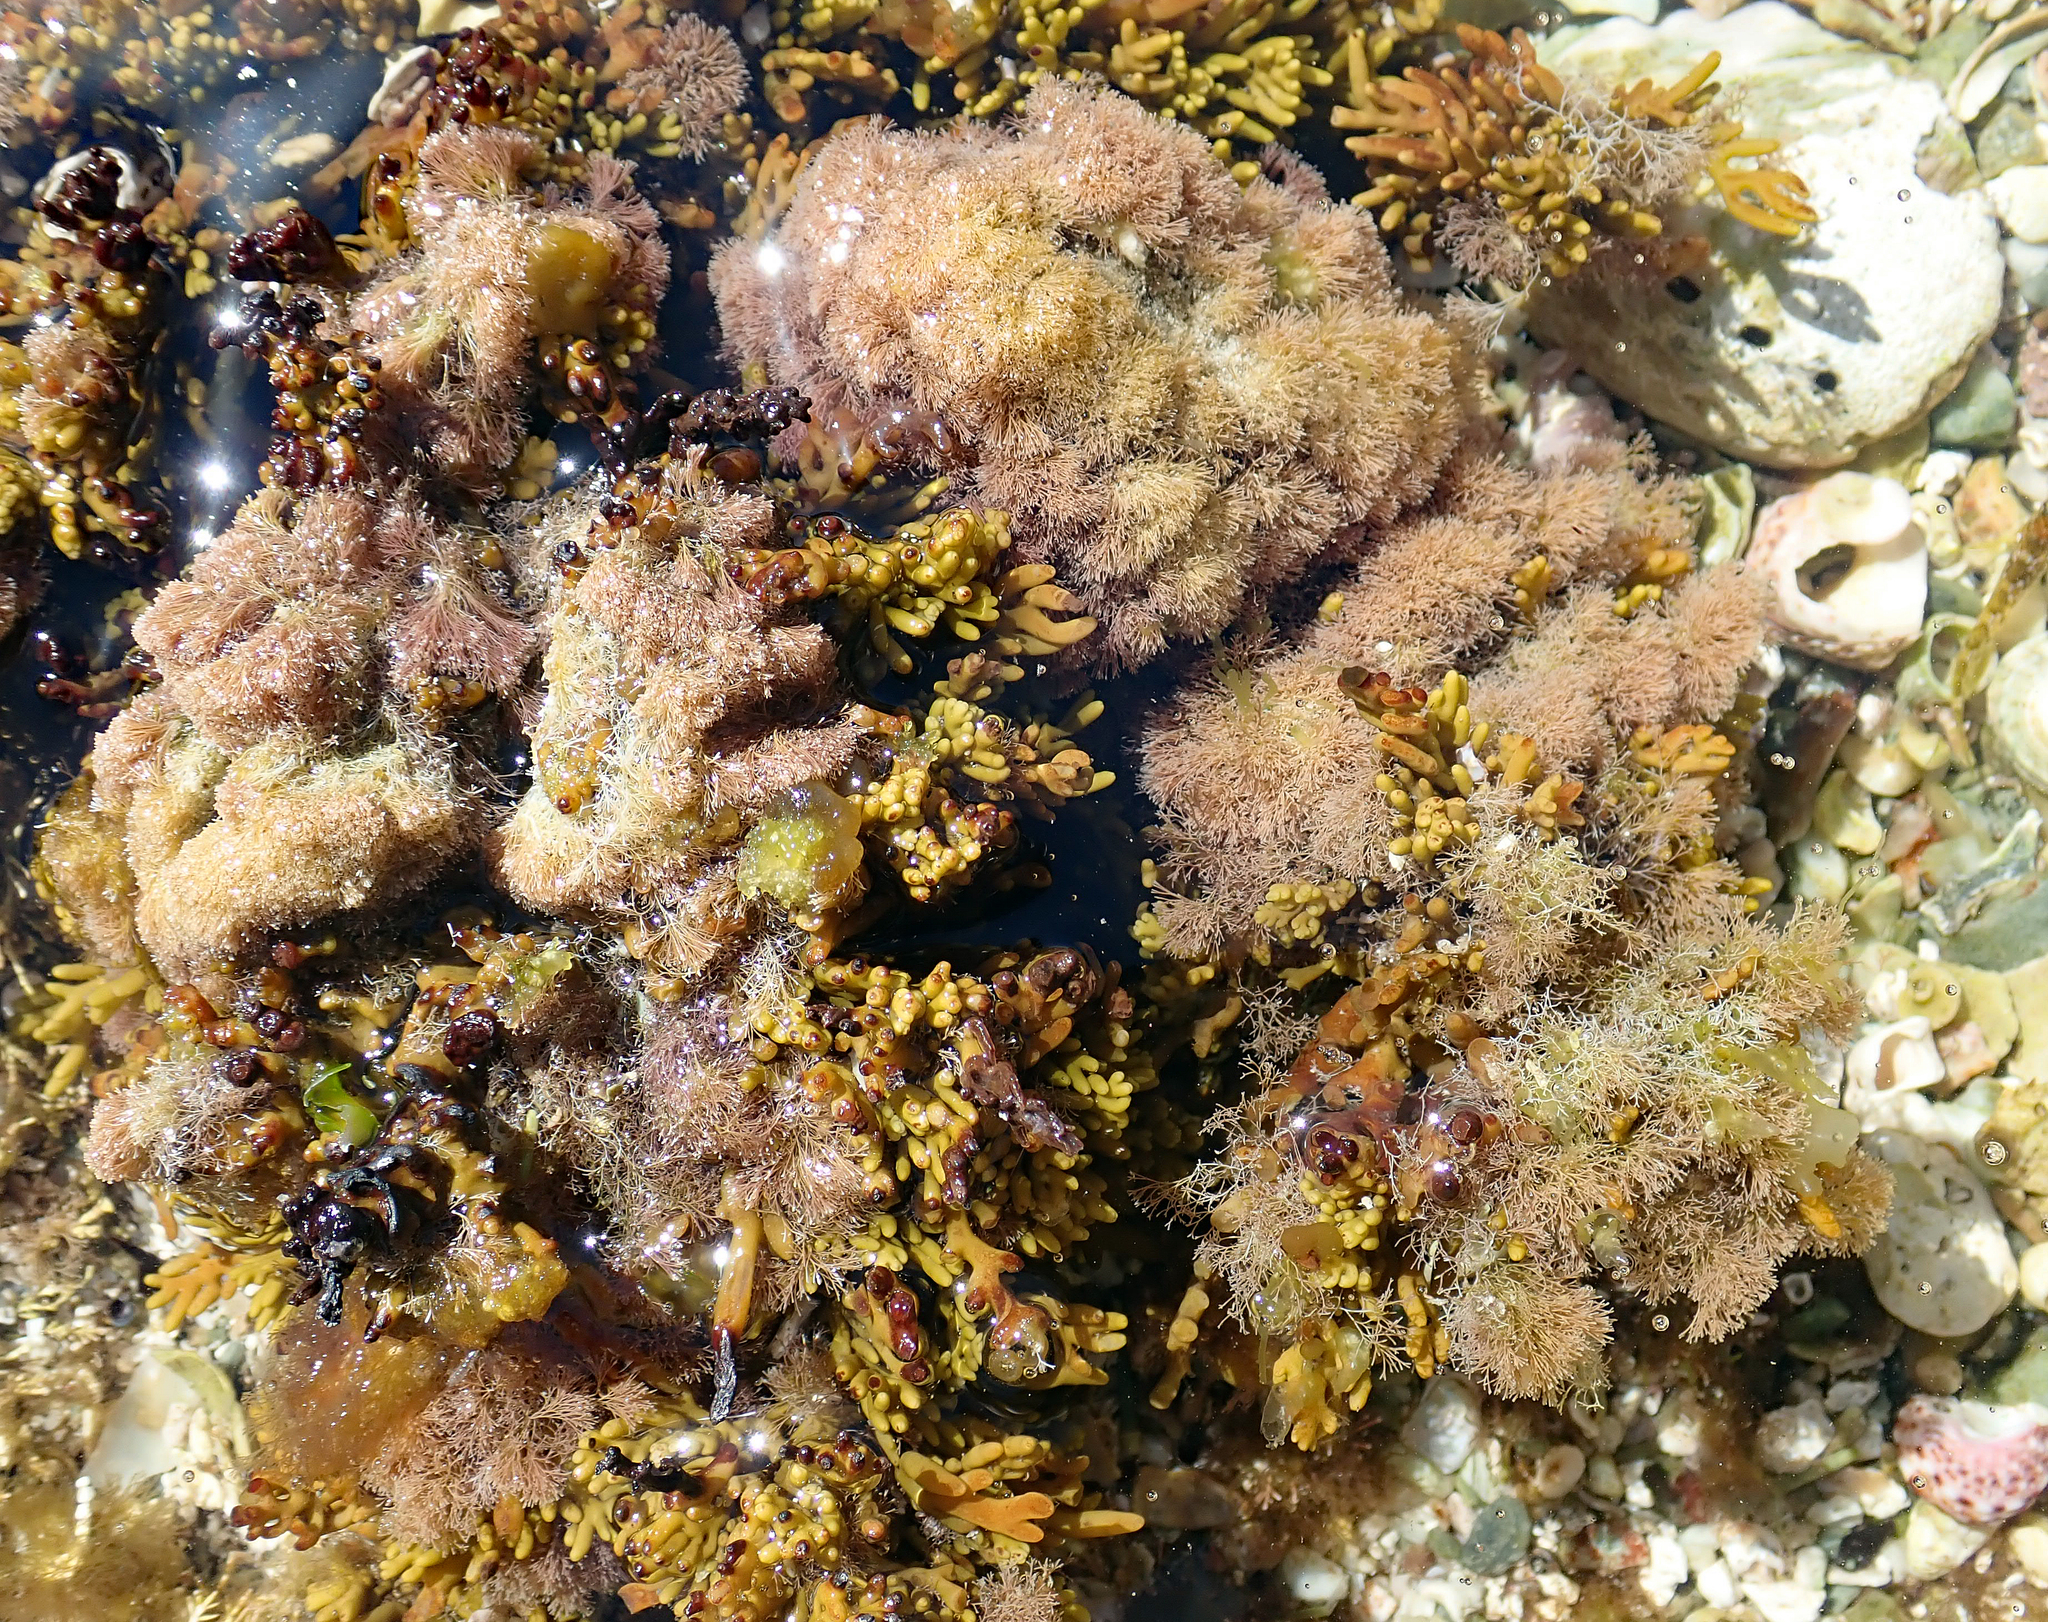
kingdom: Plantae
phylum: Rhodophyta
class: Florideophyceae
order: Corallinales
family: Corallinaceae
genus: Jania
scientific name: Jania sphaeroramosa
